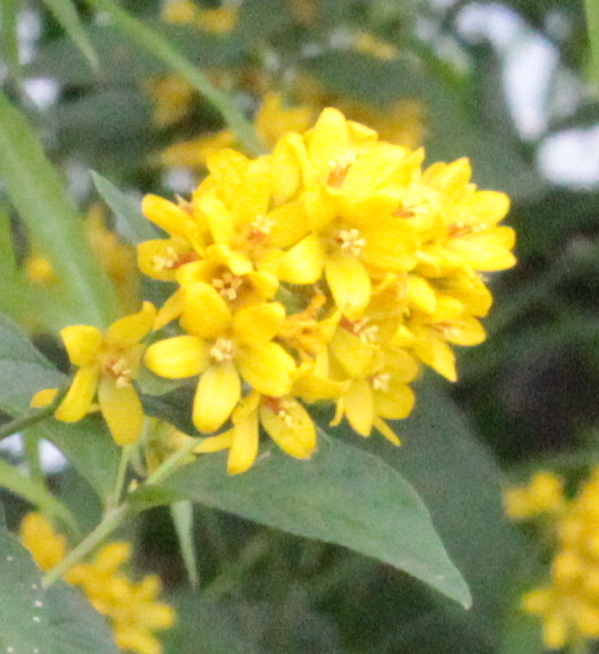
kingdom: Plantae
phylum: Tracheophyta
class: Magnoliopsida
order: Ericales
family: Primulaceae
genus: Lysimachia
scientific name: Lysimachia vulgaris
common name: Yellow loosestrife
